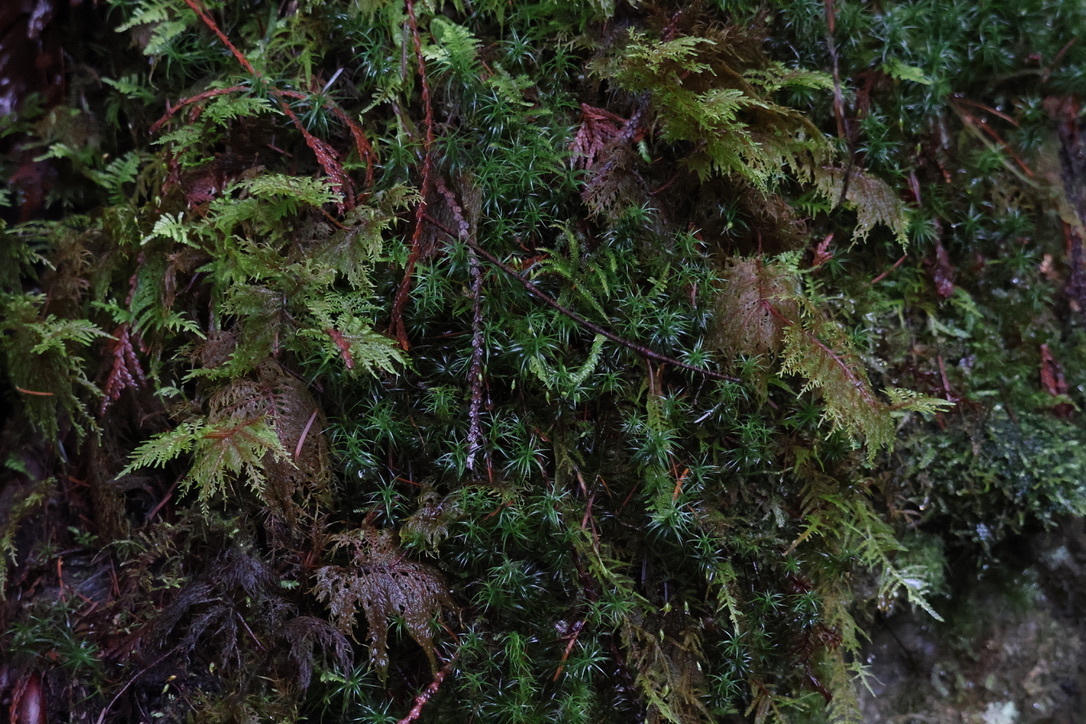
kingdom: Plantae
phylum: Bryophyta
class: Bryopsida
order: Hypnales
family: Hylocomiaceae
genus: Hylocomium
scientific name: Hylocomium splendens
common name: Stairstep moss
